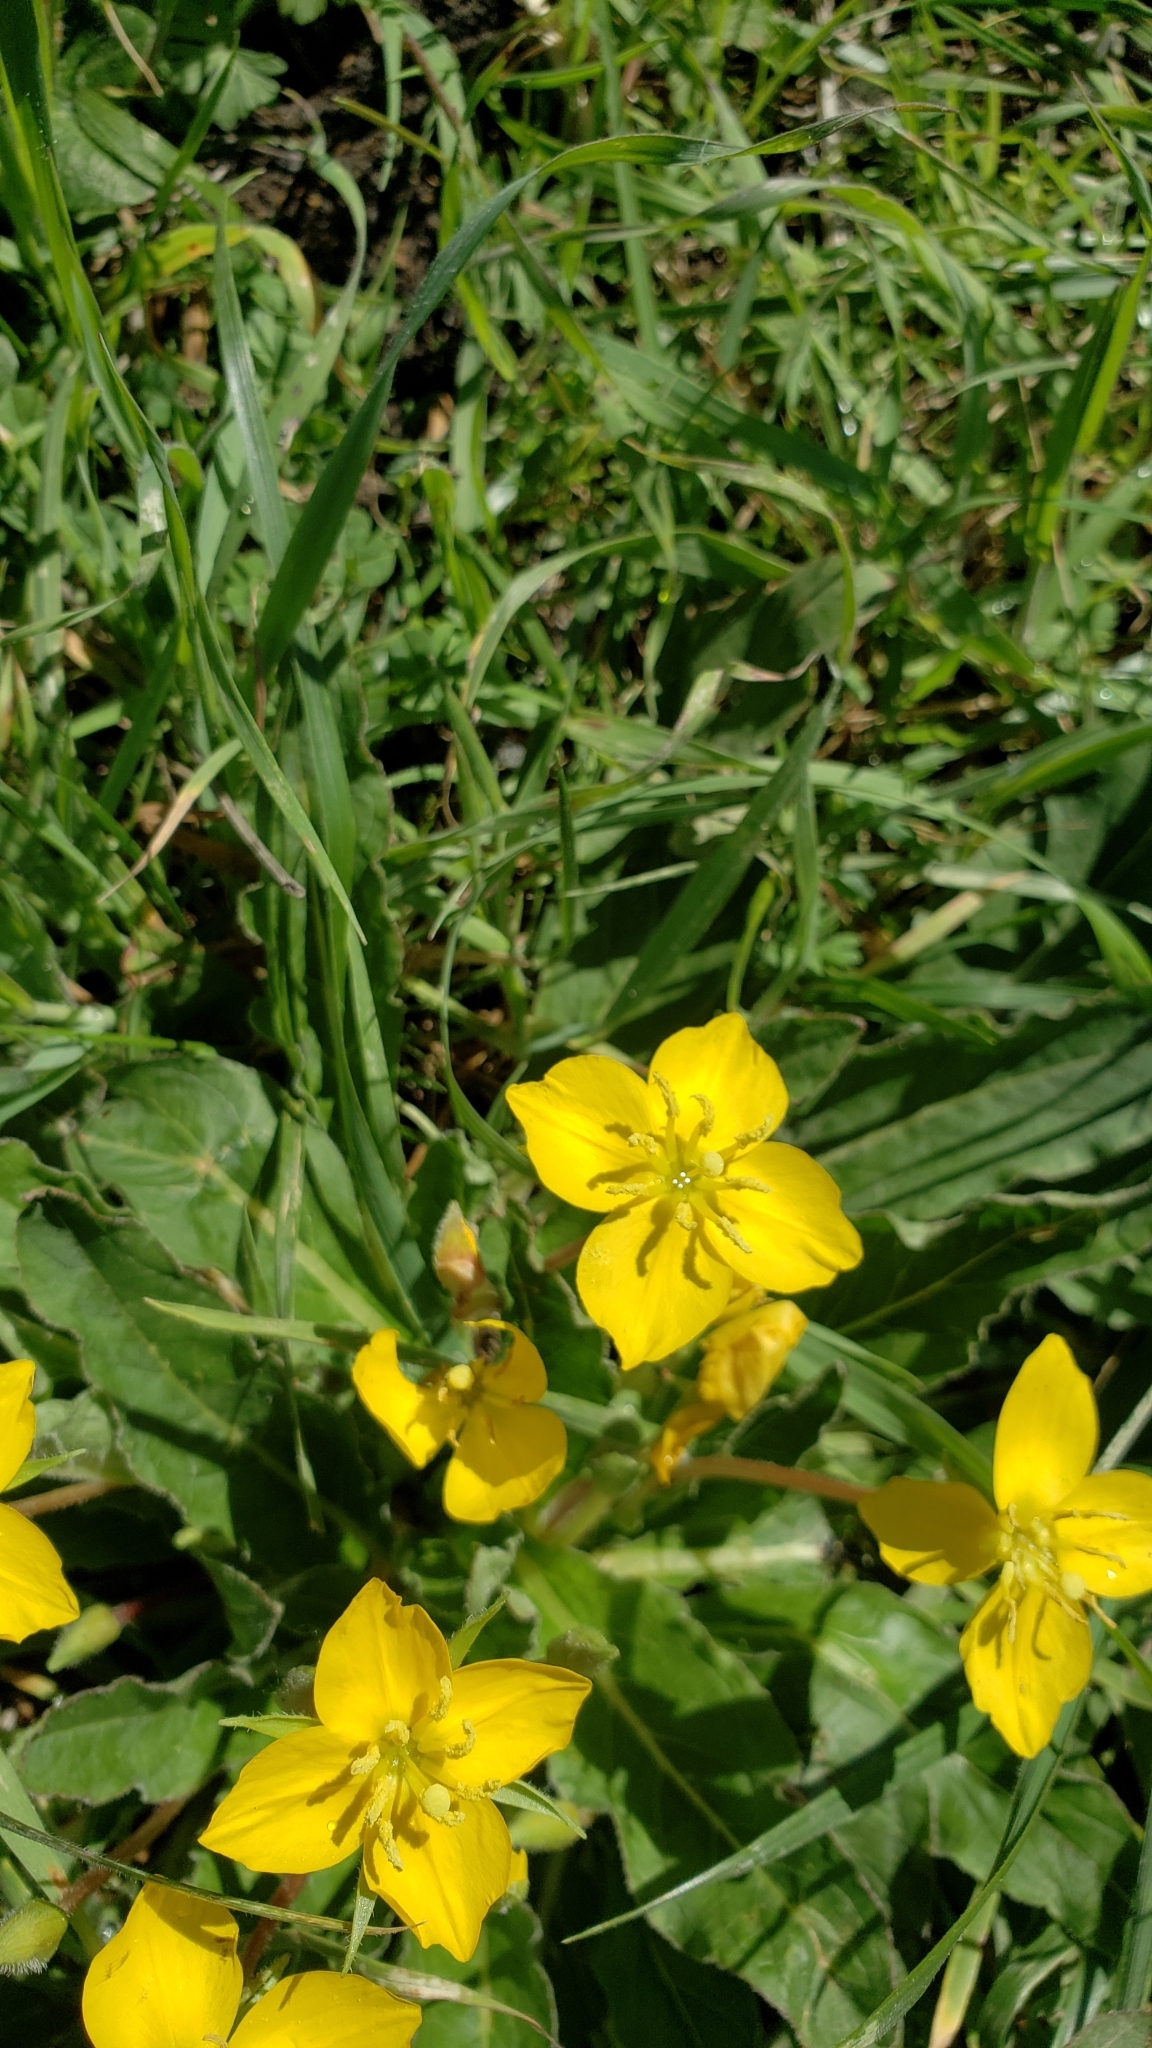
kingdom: Plantae
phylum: Tracheophyta
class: Magnoliopsida
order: Myrtales
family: Onagraceae
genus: Taraxia
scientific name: Taraxia ovata
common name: Goldeneggs
